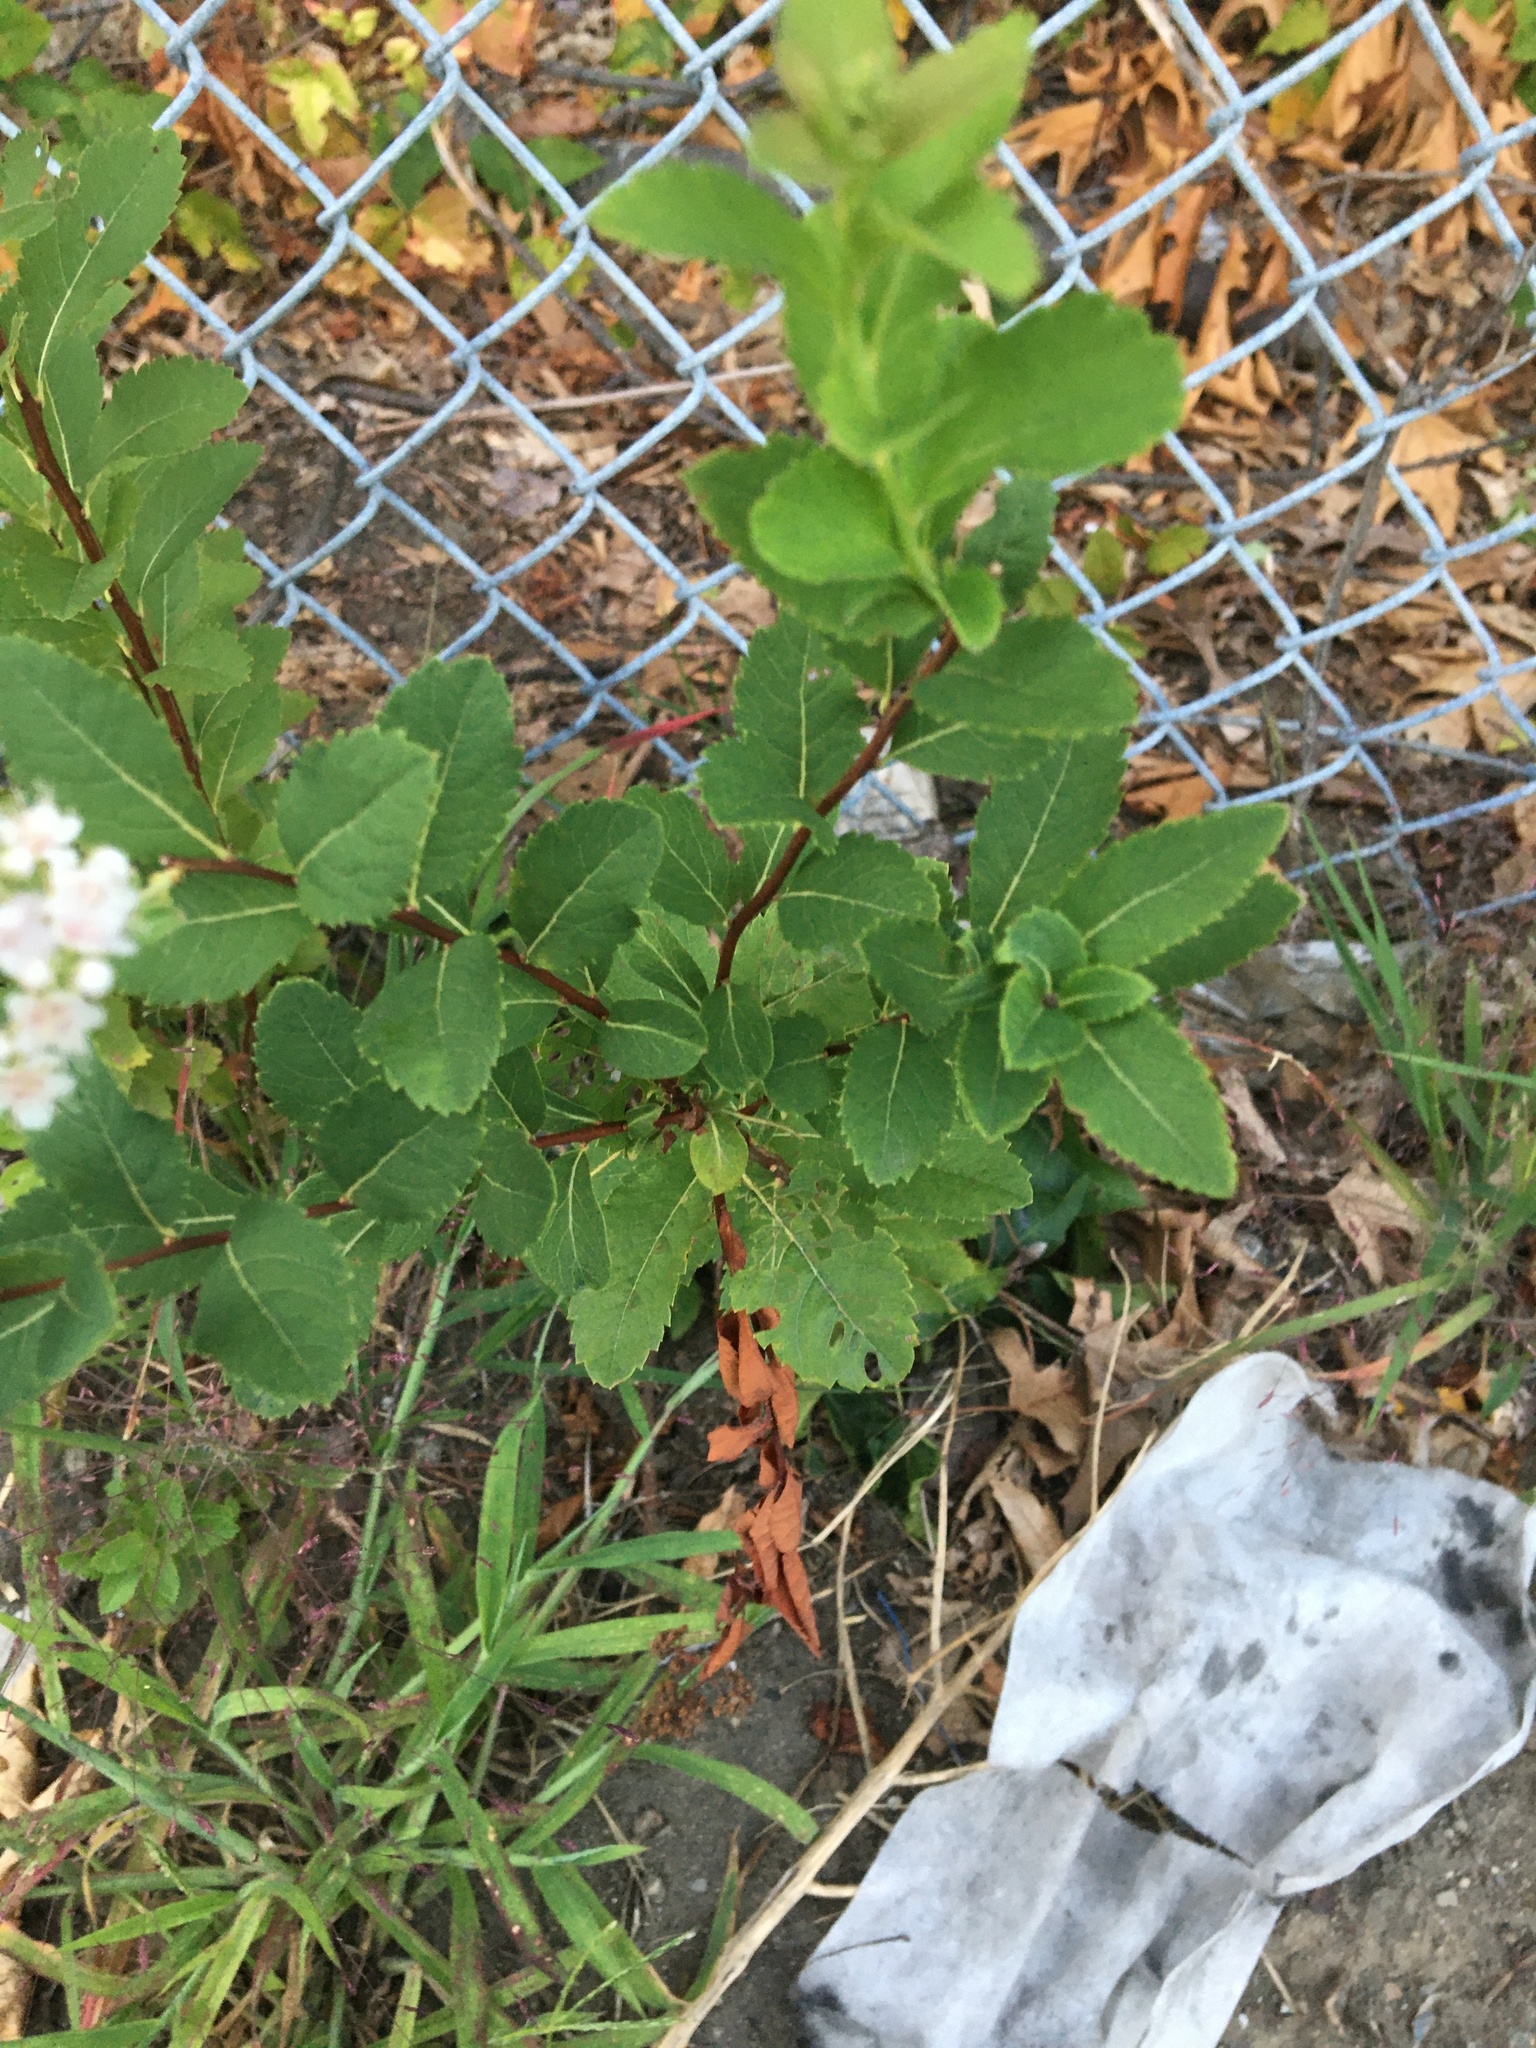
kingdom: Plantae
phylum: Tracheophyta
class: Magnoliopsida
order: Rosales
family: Rosaceae
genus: Spiraea
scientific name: Spiraea alba
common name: Pale bridewort
